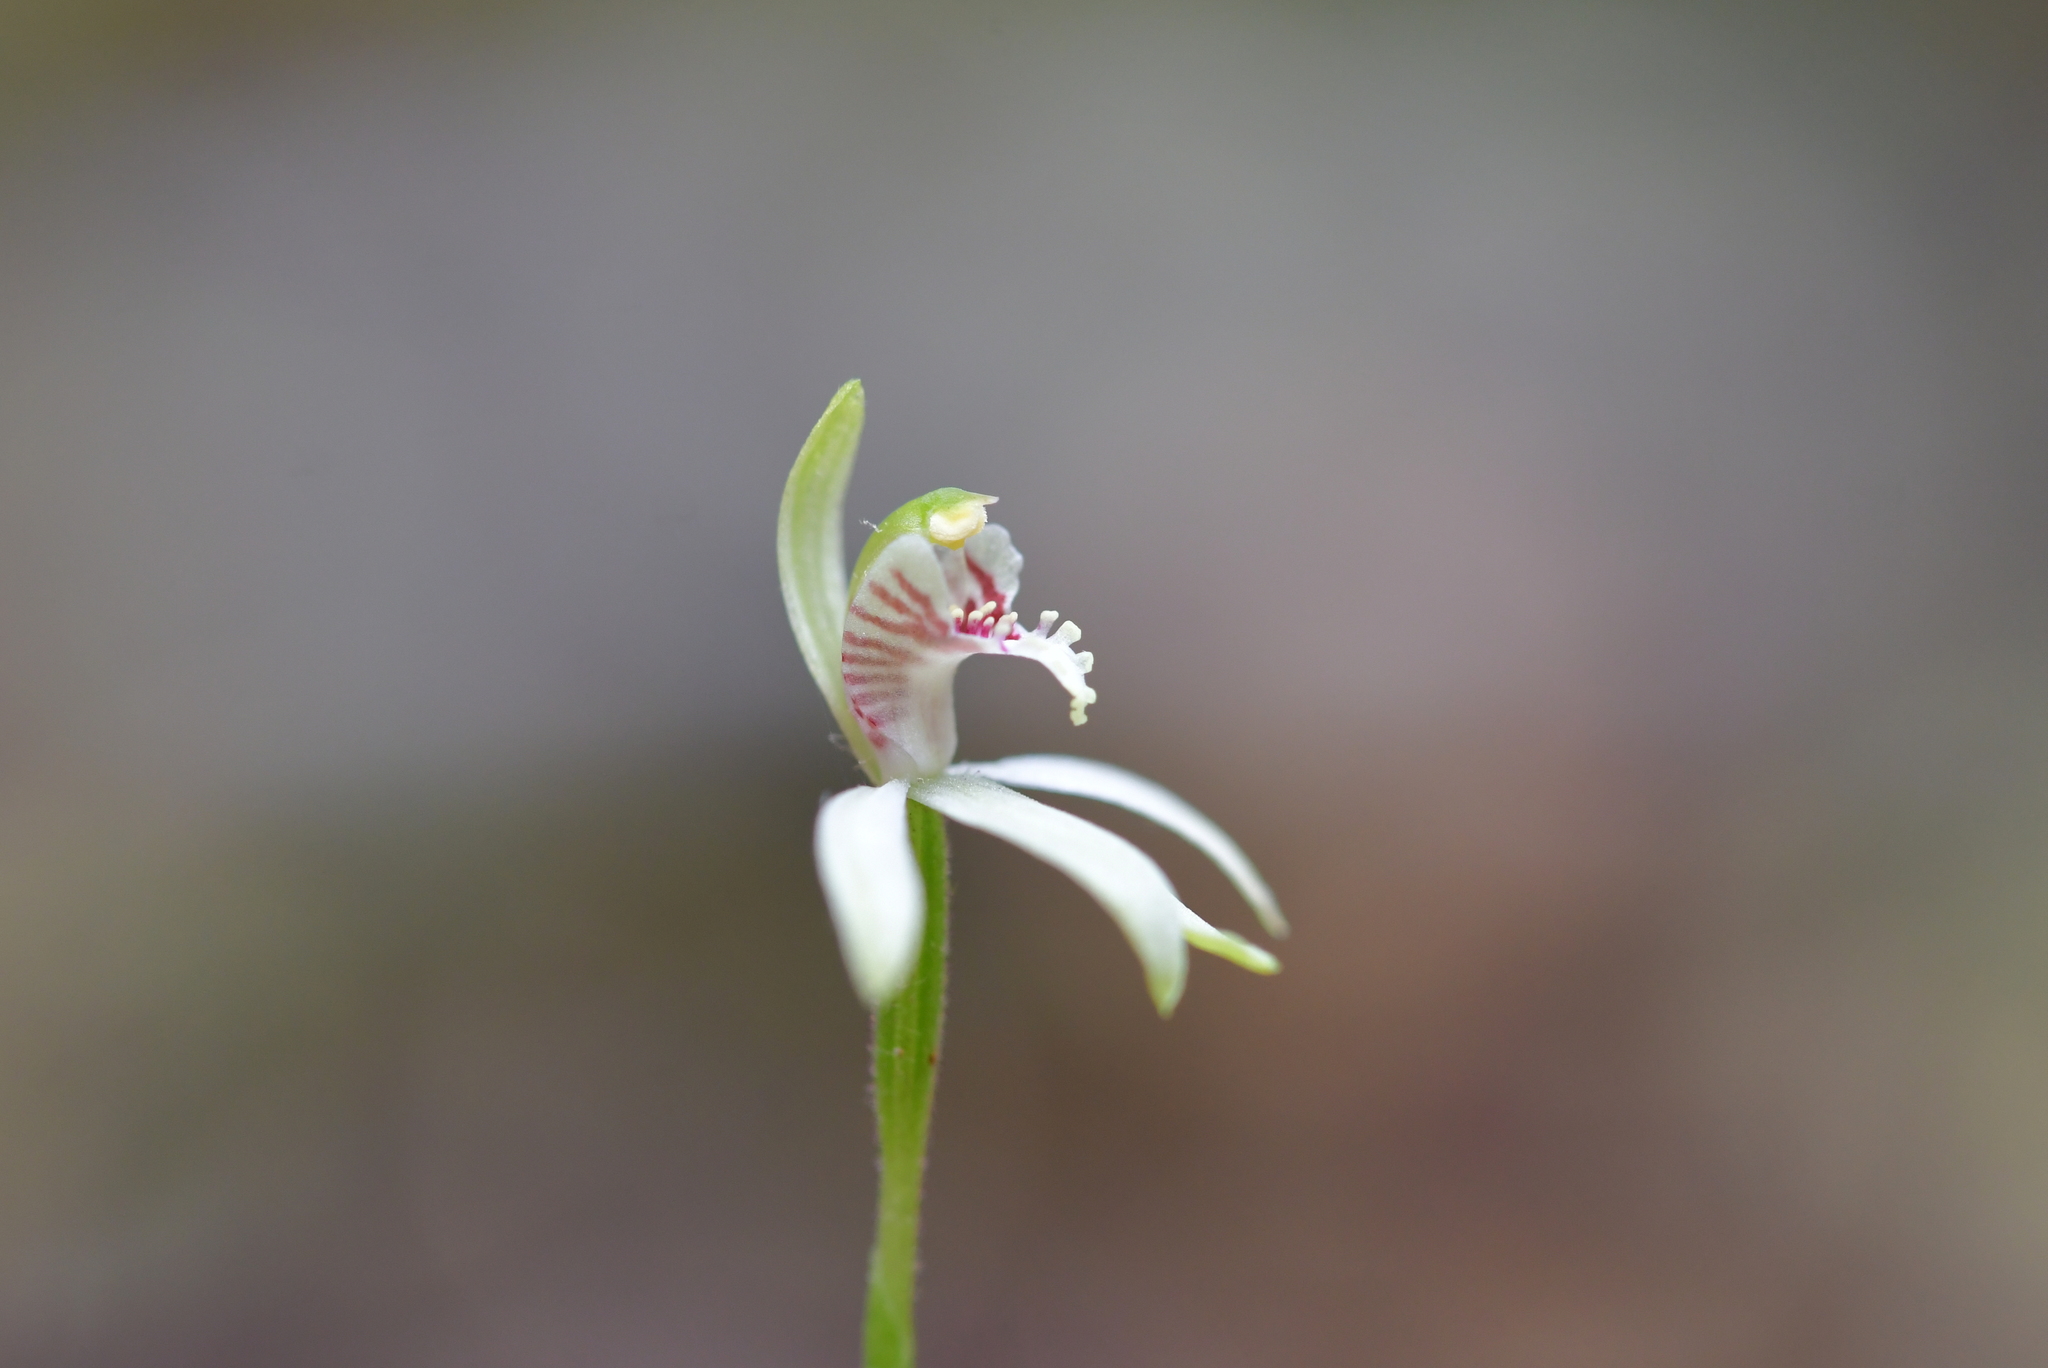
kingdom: Plantae
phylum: Tracheophyta
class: Liliopsida
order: Asparagales
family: Orchidaceae
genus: Caladenia
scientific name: Caladenia chlorostyla
